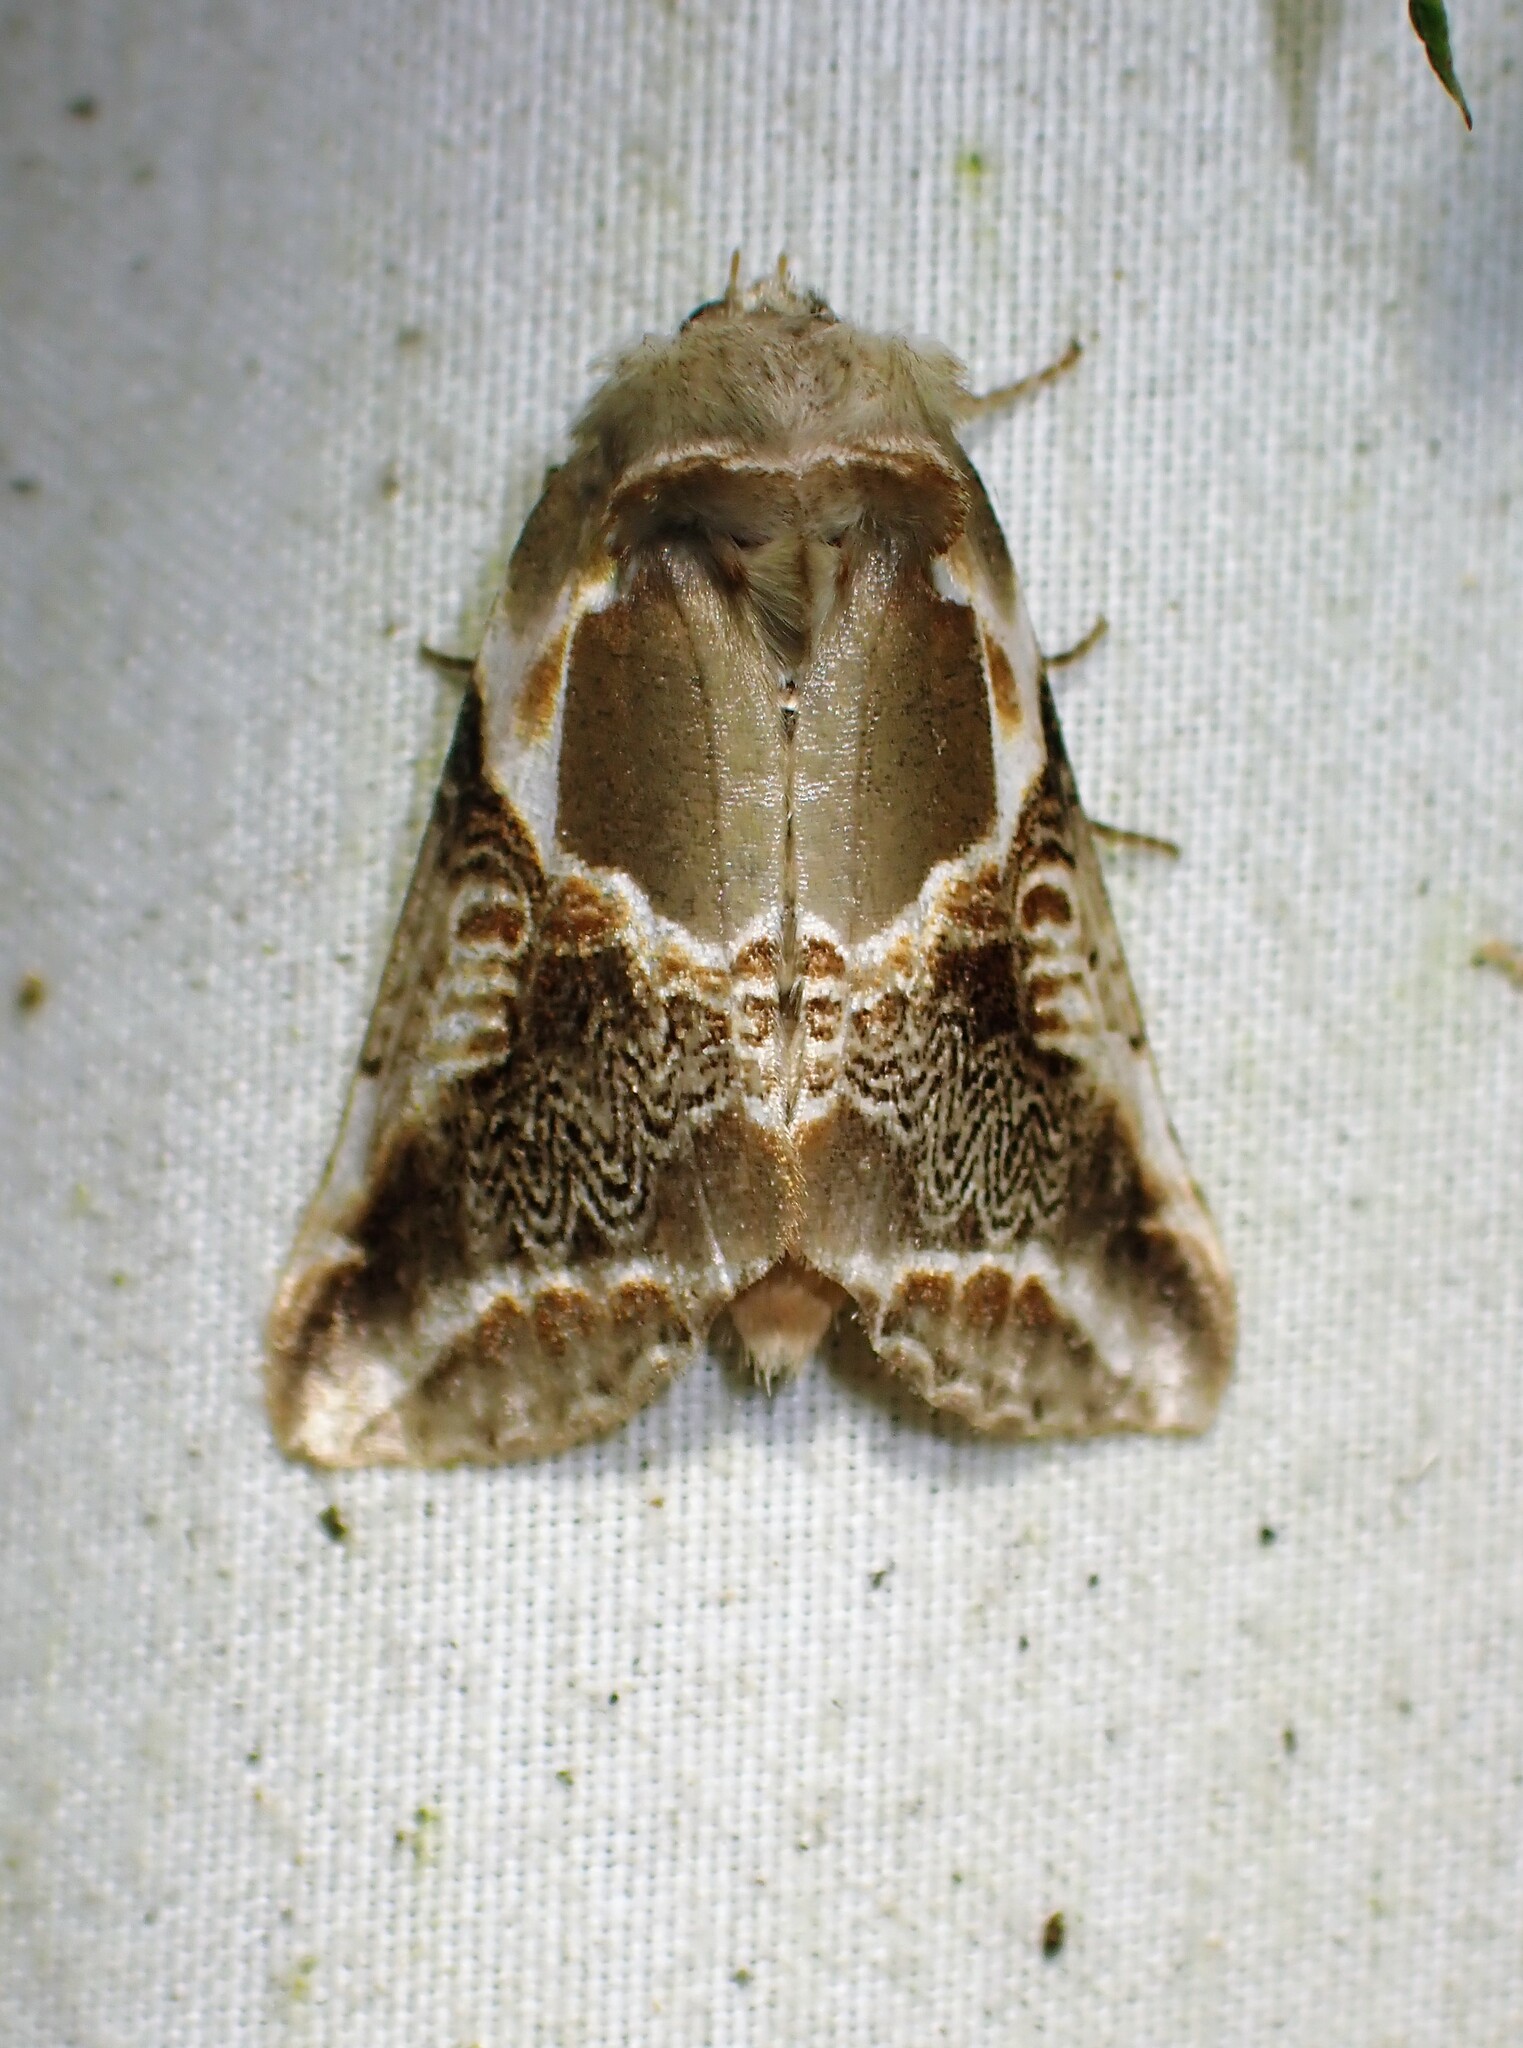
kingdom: Animalia
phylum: Arthropoda
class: Insecta
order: Lepidoptera
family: Drepanidae
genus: Habrosyne
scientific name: Habrosyne scripta
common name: Lettered habrosyne moth
